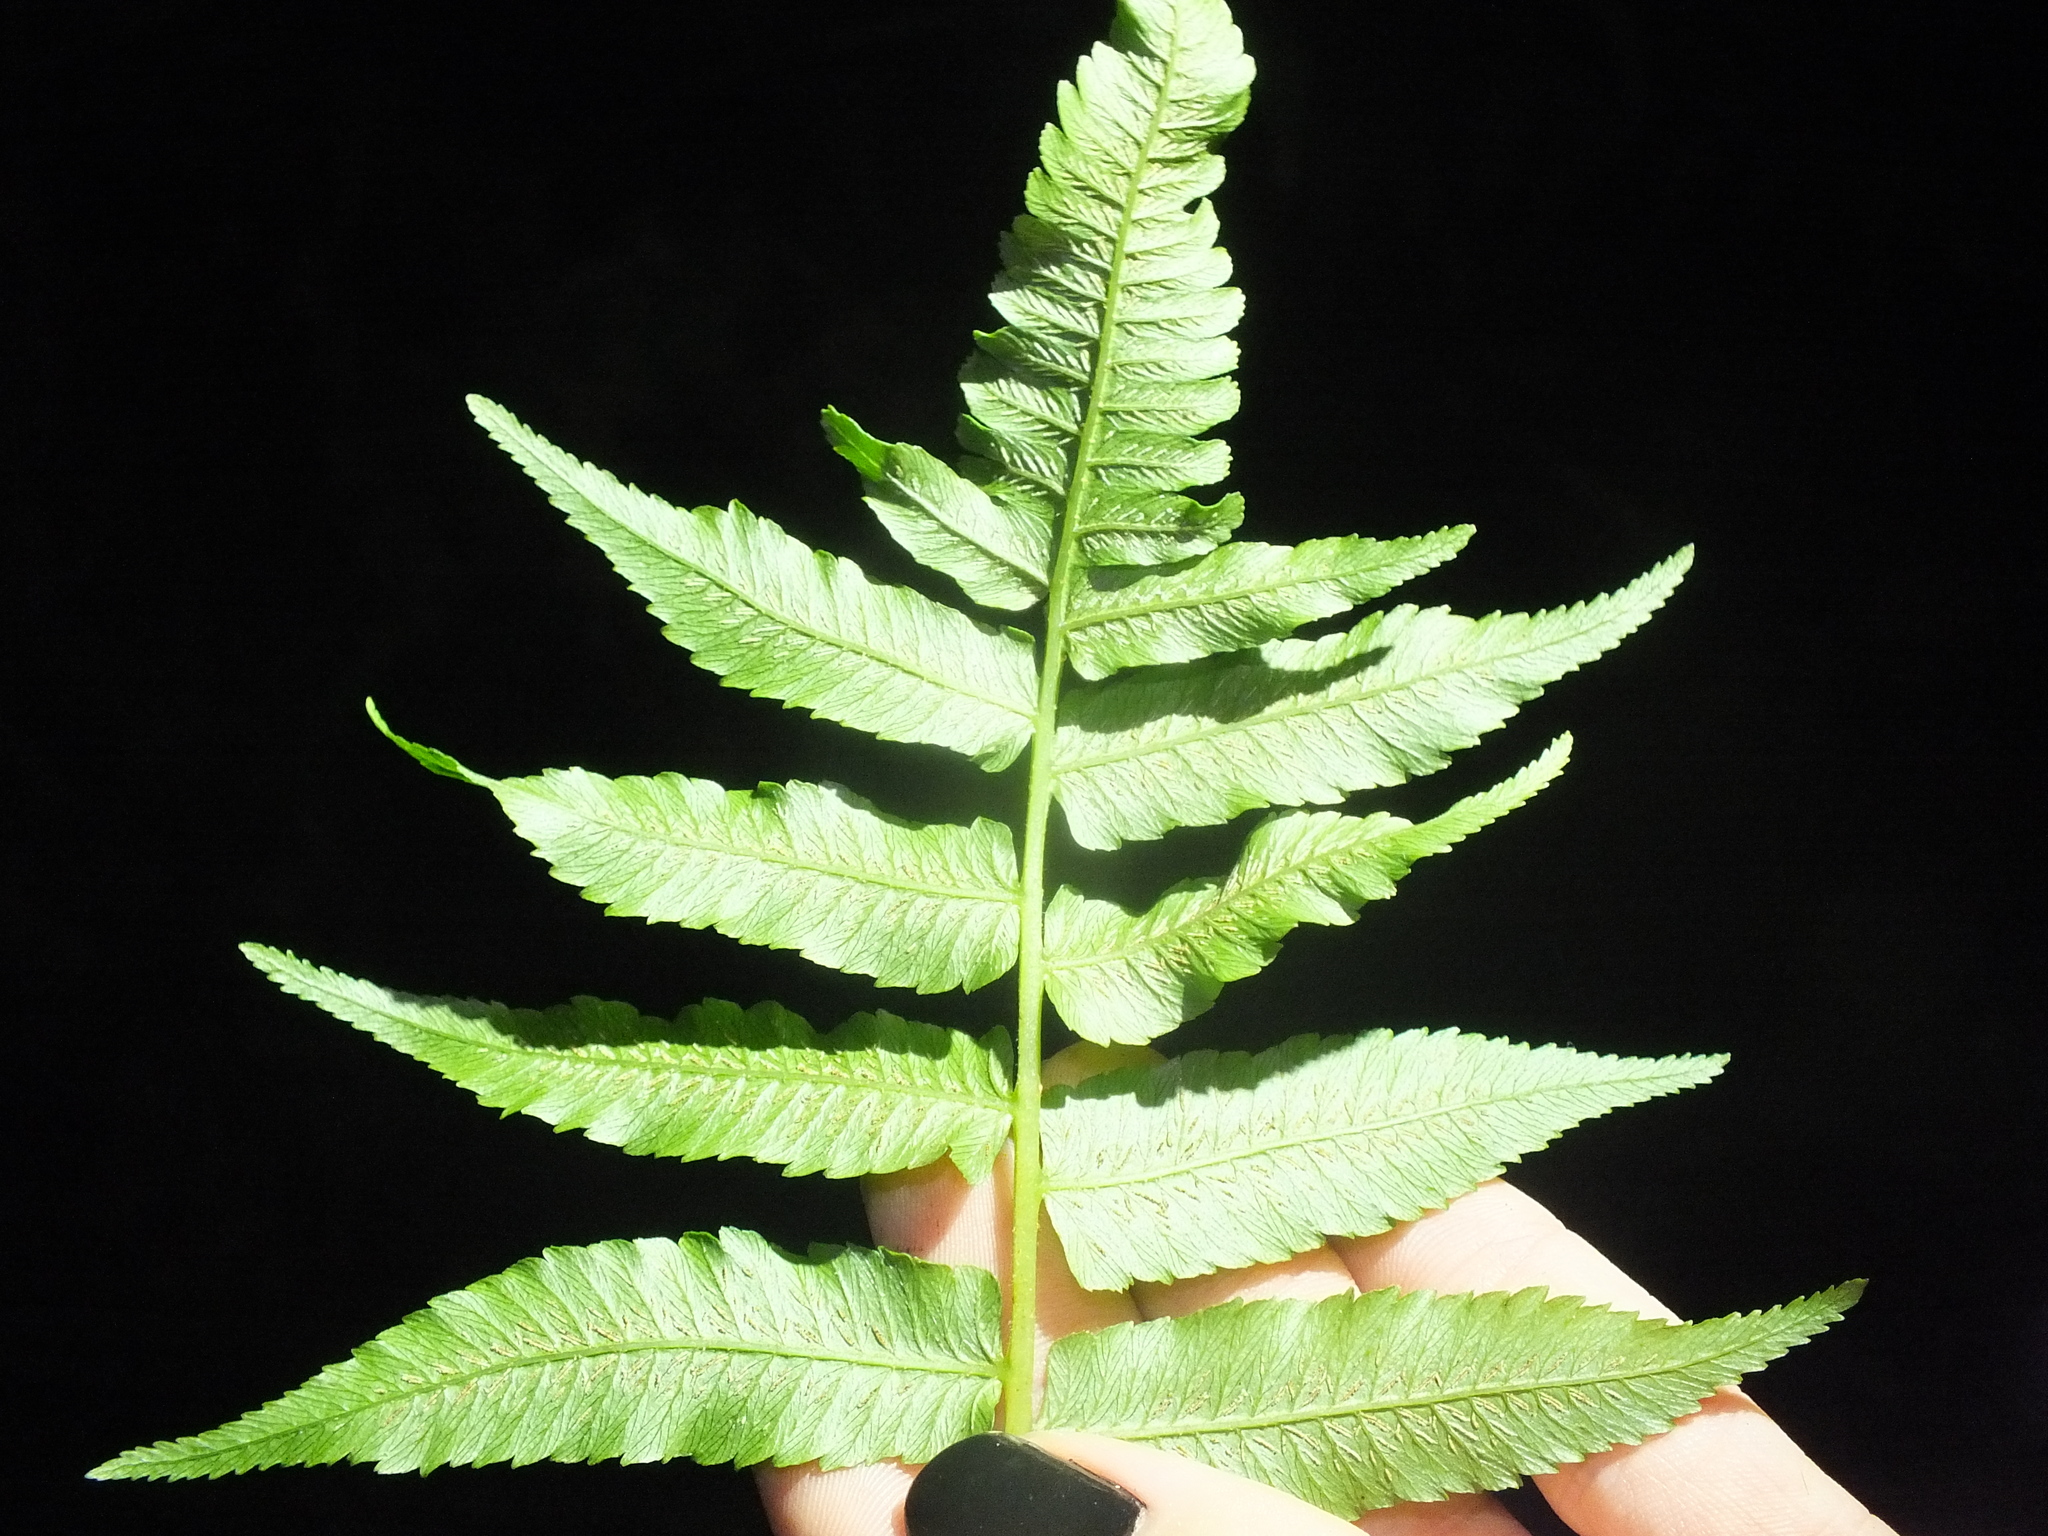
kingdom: Plantae
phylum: Tracheophyta
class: Polypodiopsida
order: Polypodiales
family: Athyriaceae
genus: Diplazium
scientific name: Diplazium esculentum
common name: Vegetable fern
